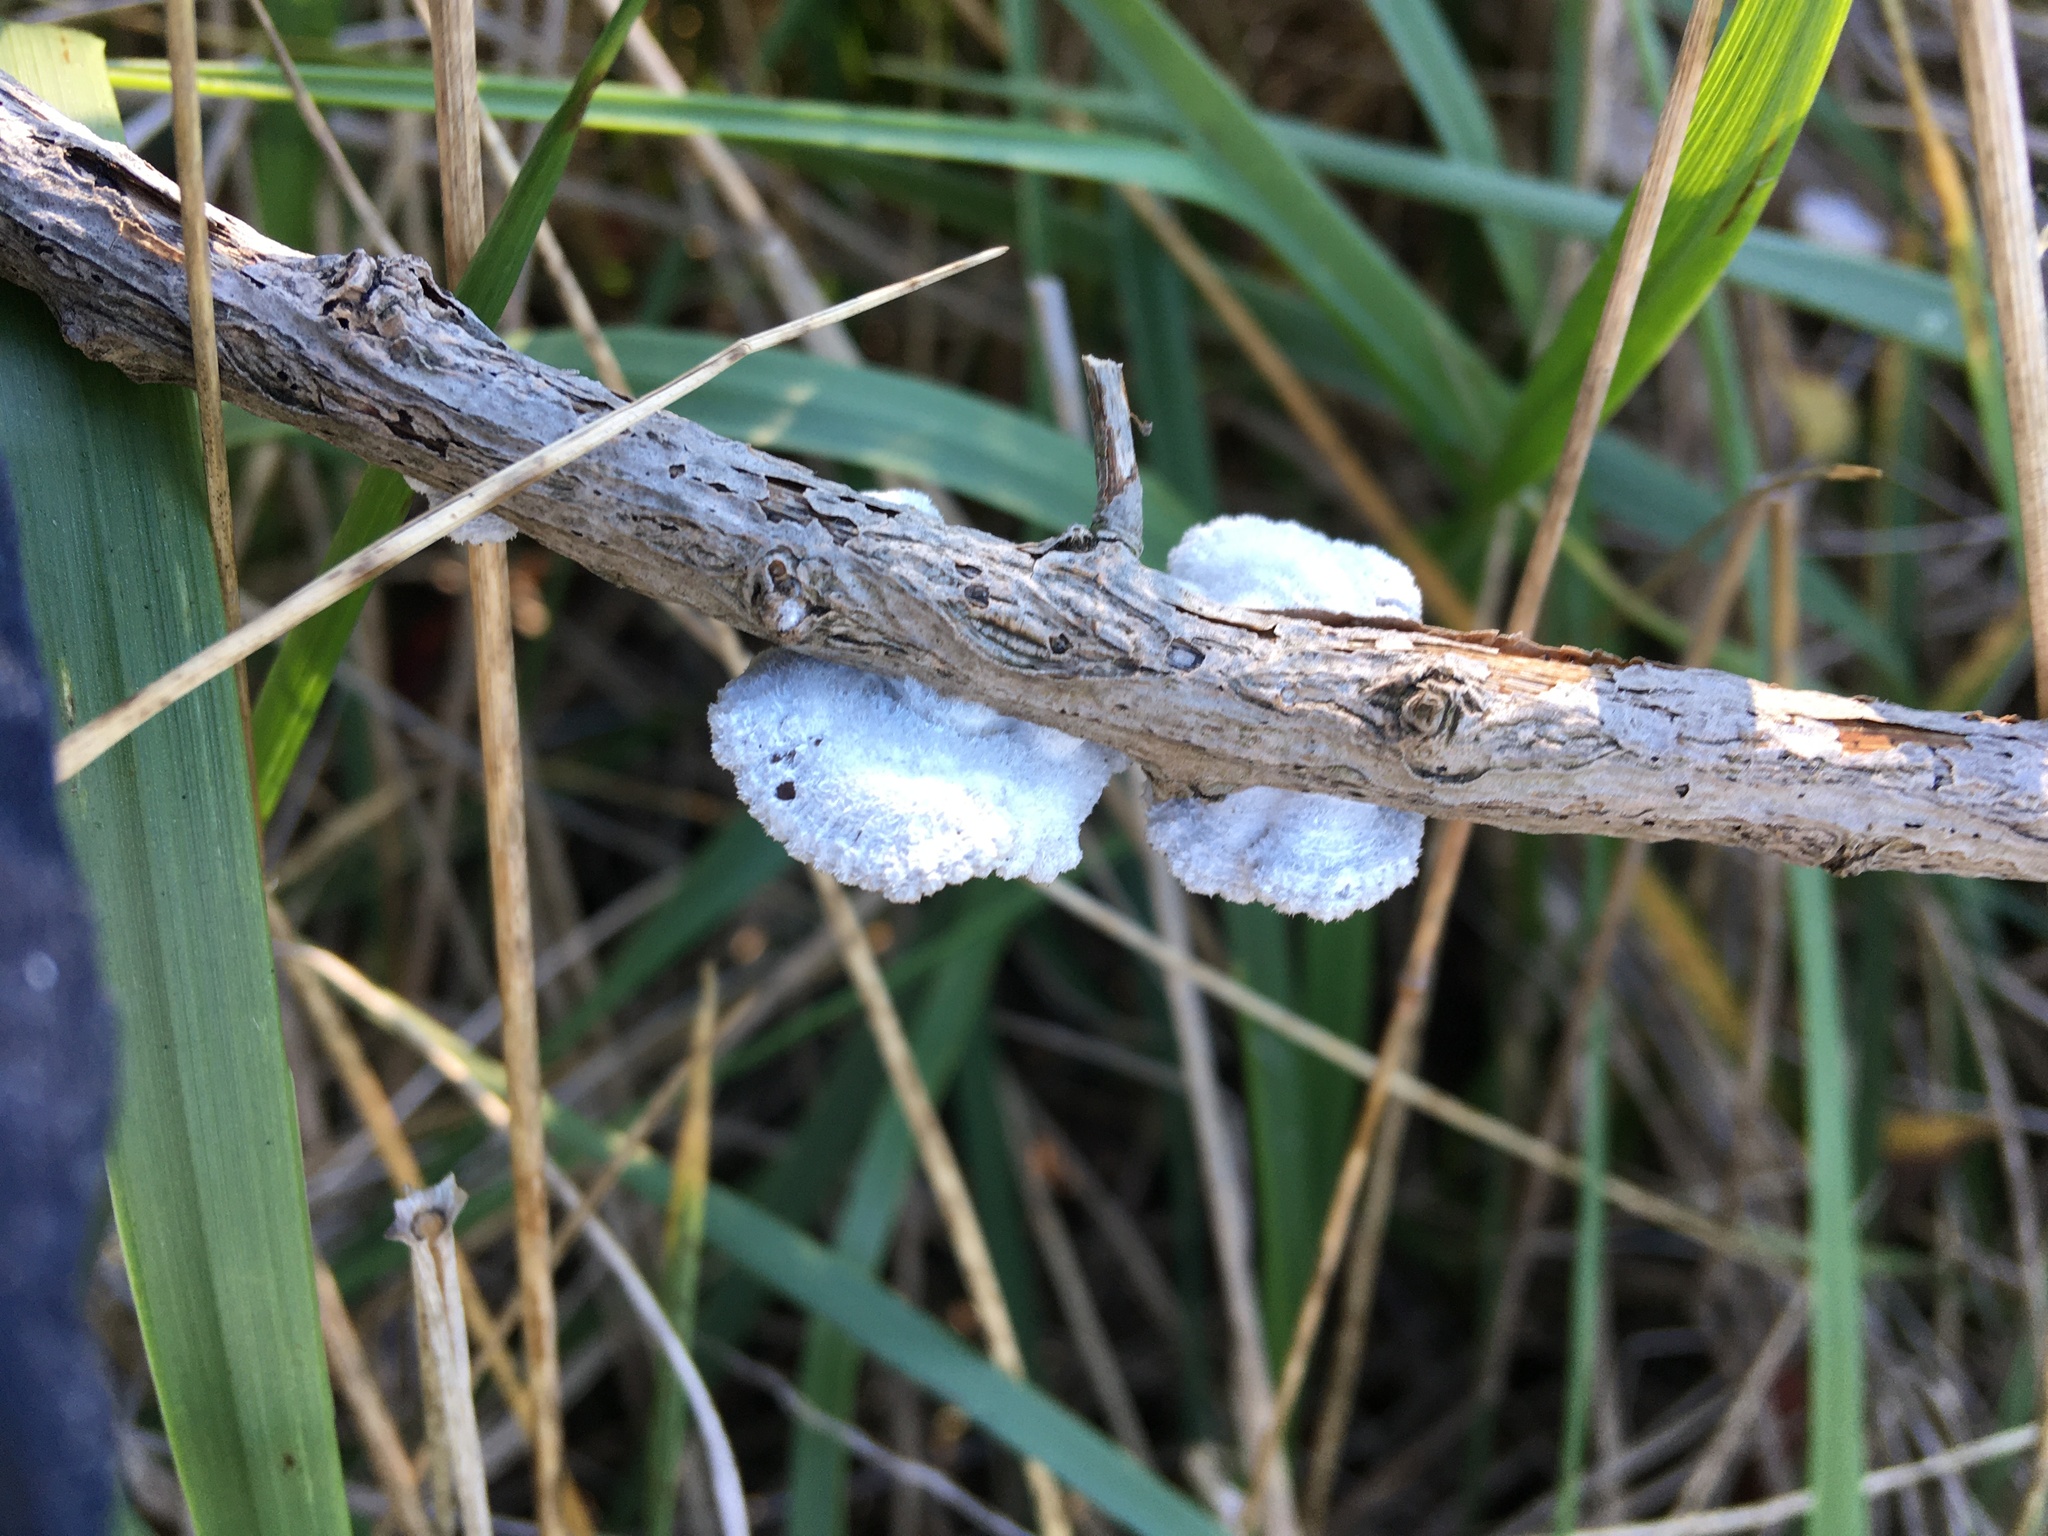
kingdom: Fungi
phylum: Basidiomycota
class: Agaricomycetes
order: Agaricales
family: Schizophyllaceae
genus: Schizophyllum
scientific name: Schizophyllum commune
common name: Common porecrust
